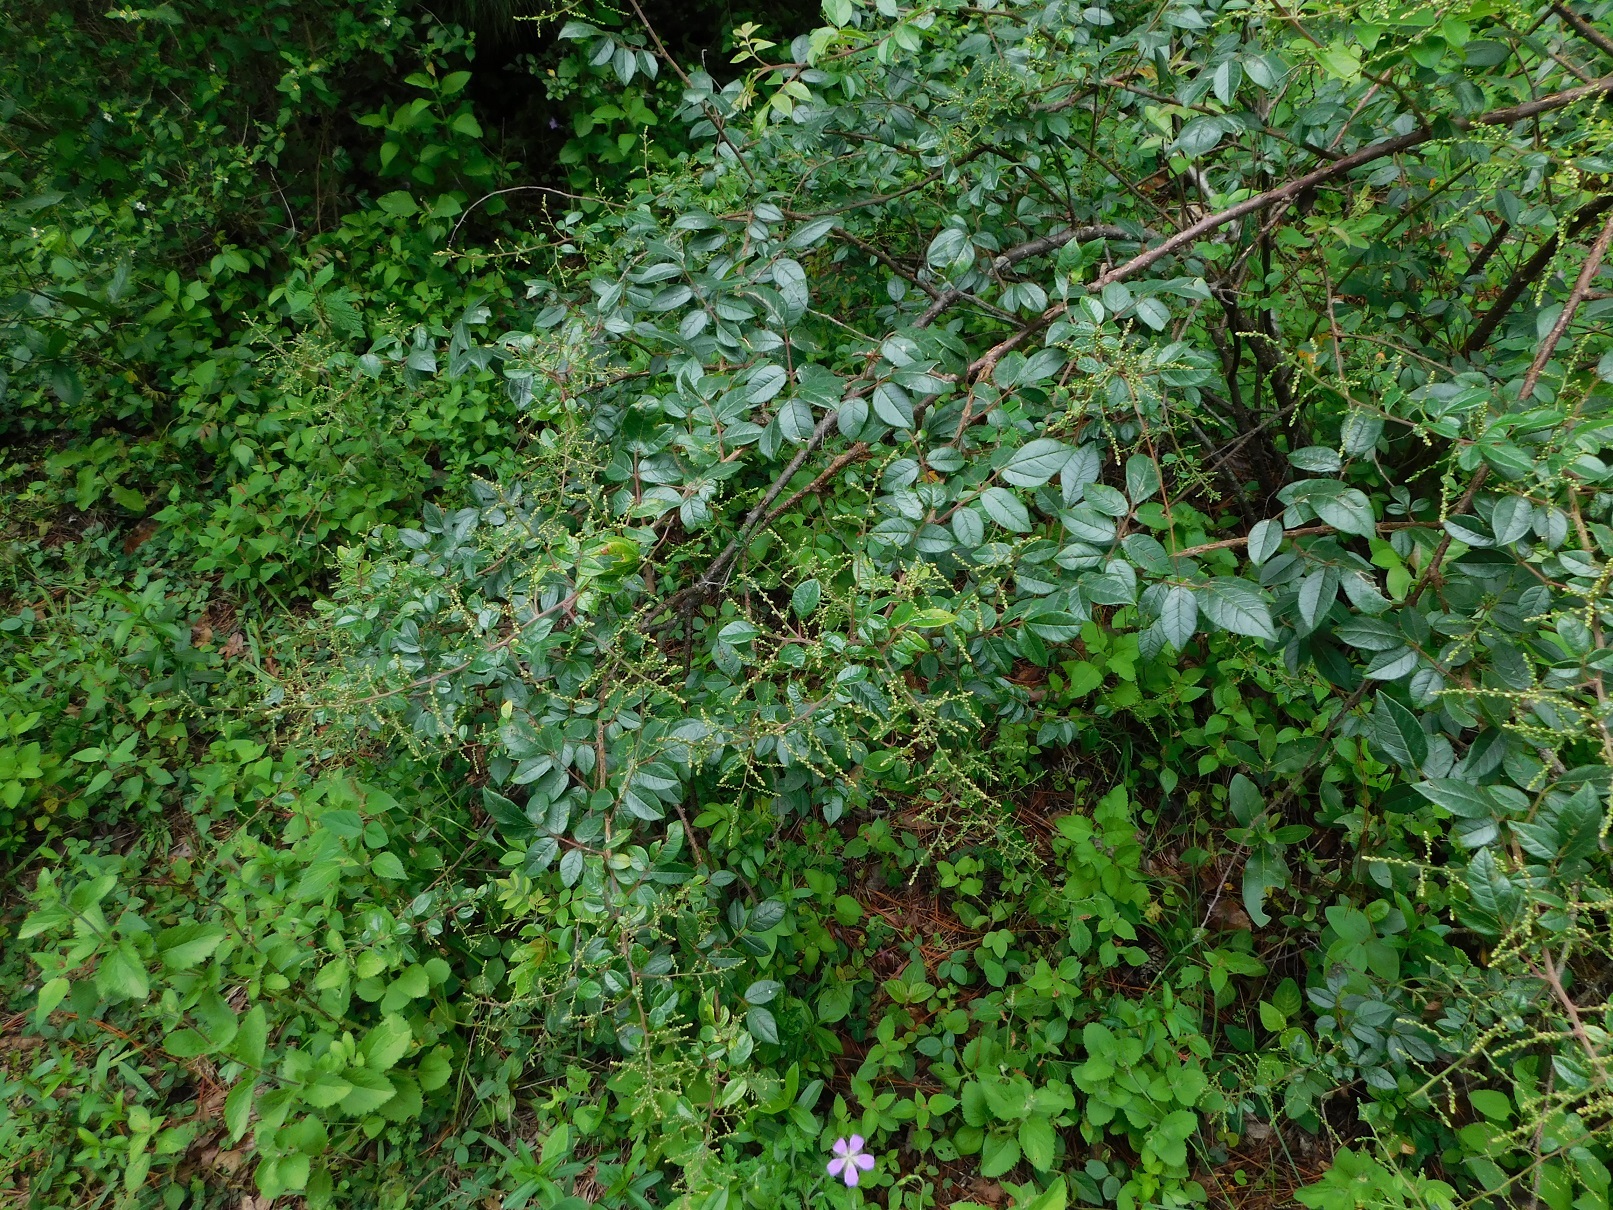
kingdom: Plantae
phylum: Tracheophyta
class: Magnoliopsida
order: Sapindales
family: Anacardiaceae
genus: Rhus
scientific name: Rhus terebinthifolia
